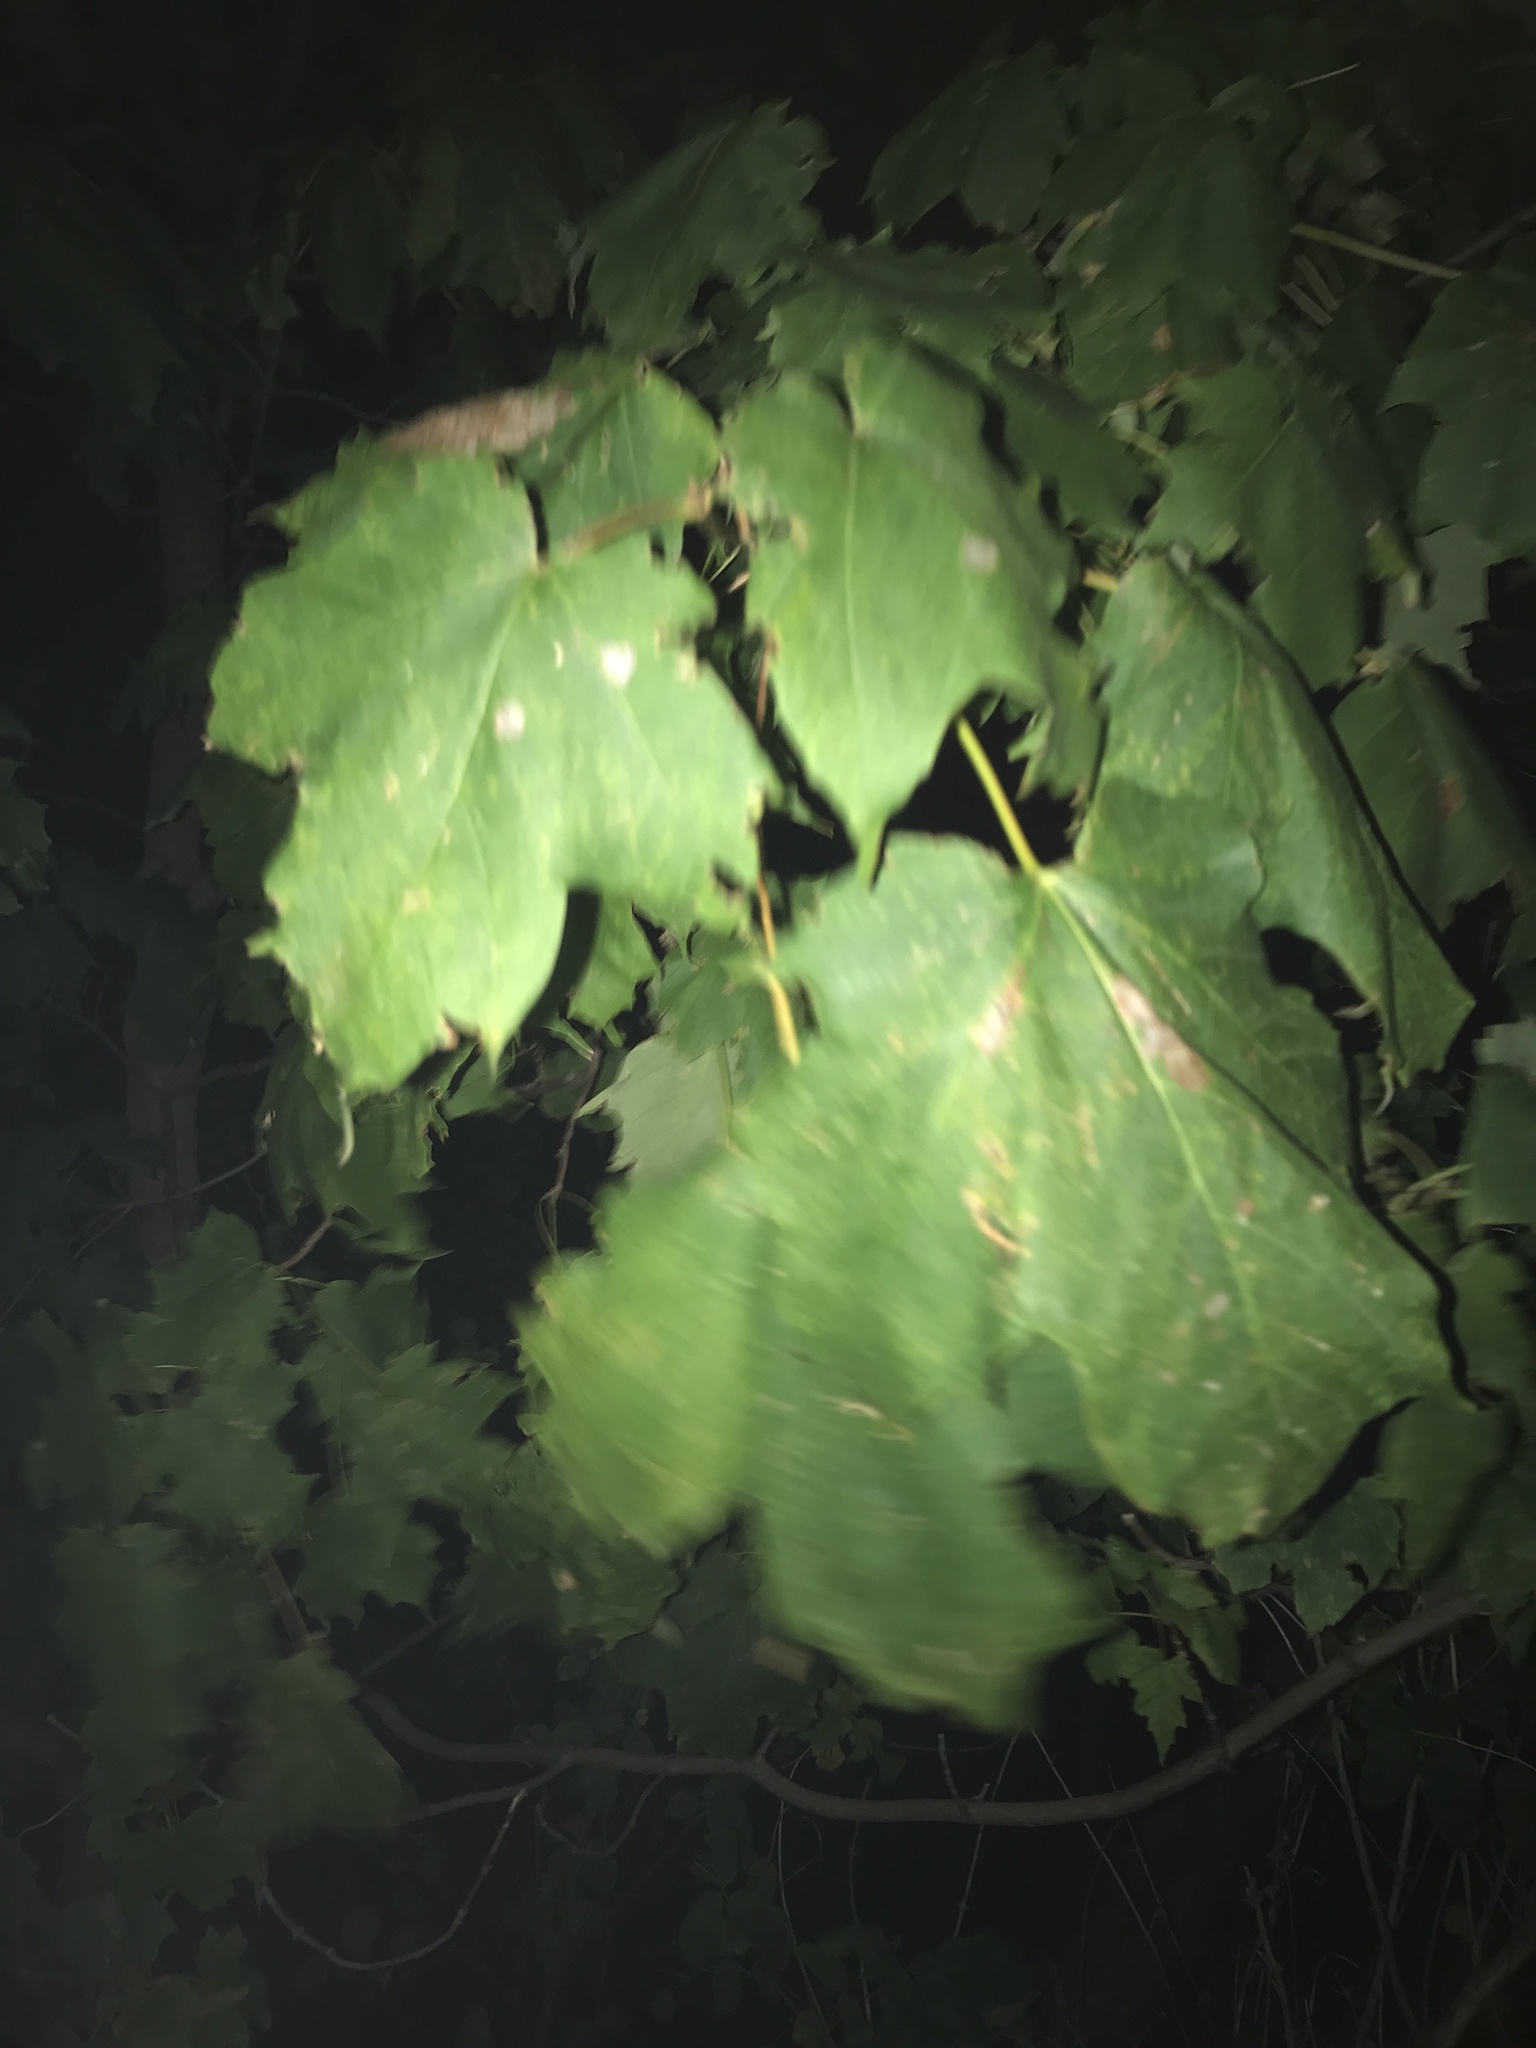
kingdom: Plantae
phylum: Tracheophyta
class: Magnoliopsida
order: Sapindales
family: Sapindaceae
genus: Acer
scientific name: Acer nigrum
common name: Black maple
